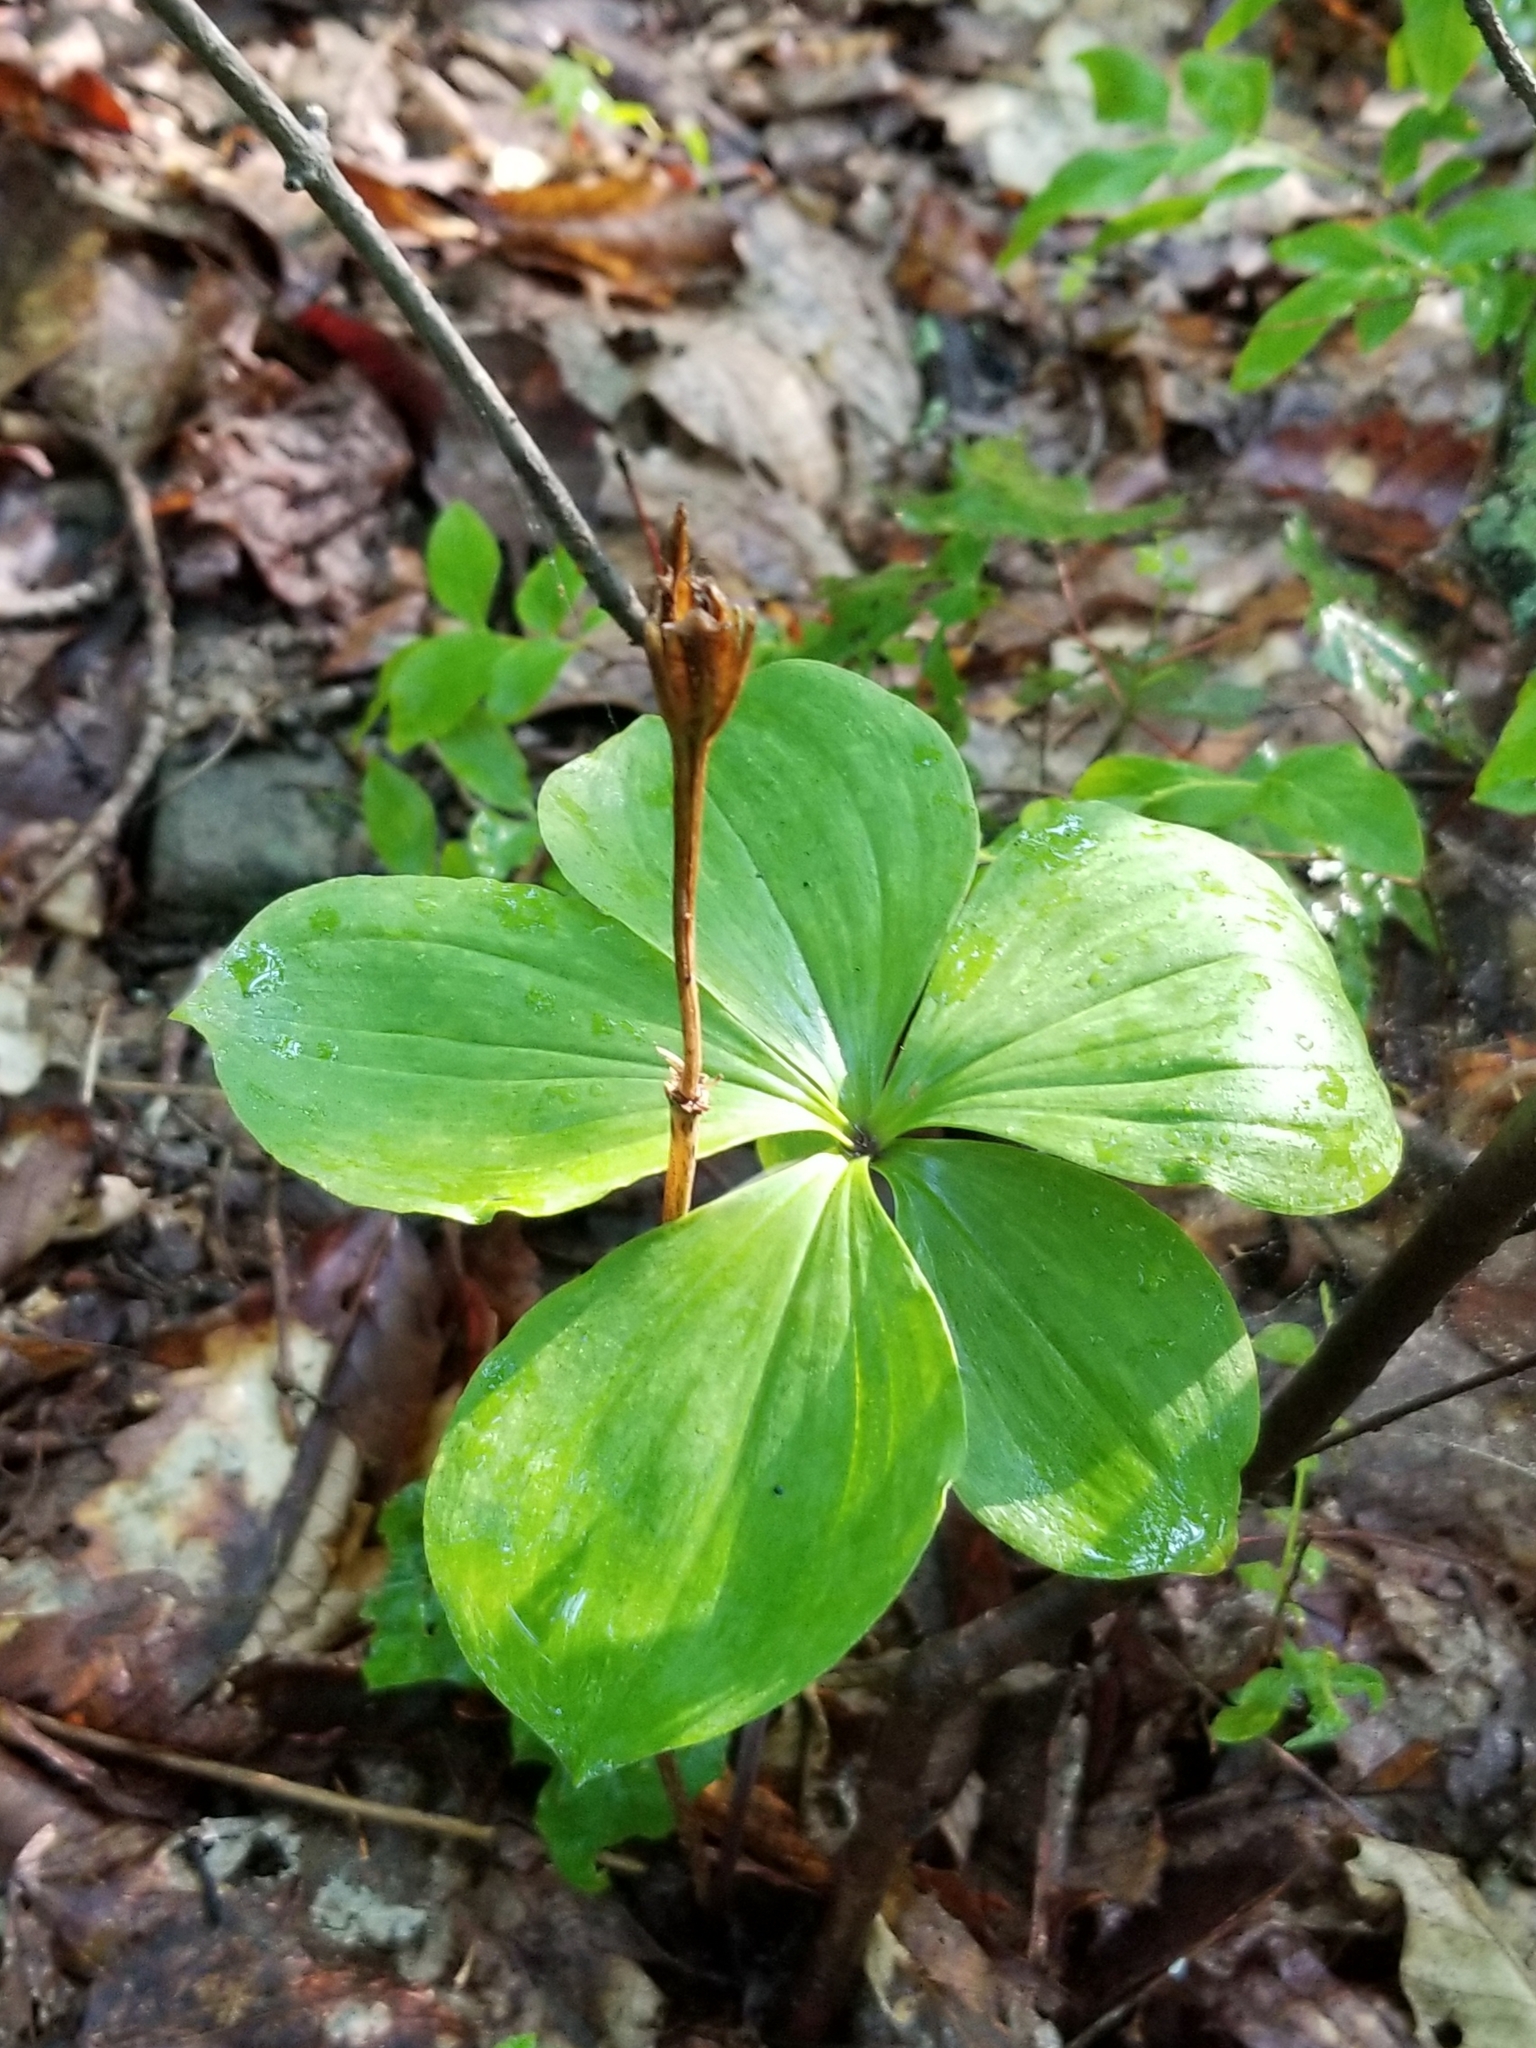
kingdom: Plantae
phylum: Tracheophyta
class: Liliopsida
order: Asparagales
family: Orchidaceae
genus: Isotria
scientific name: Isotria verticillata
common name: Large whorled pogonia
